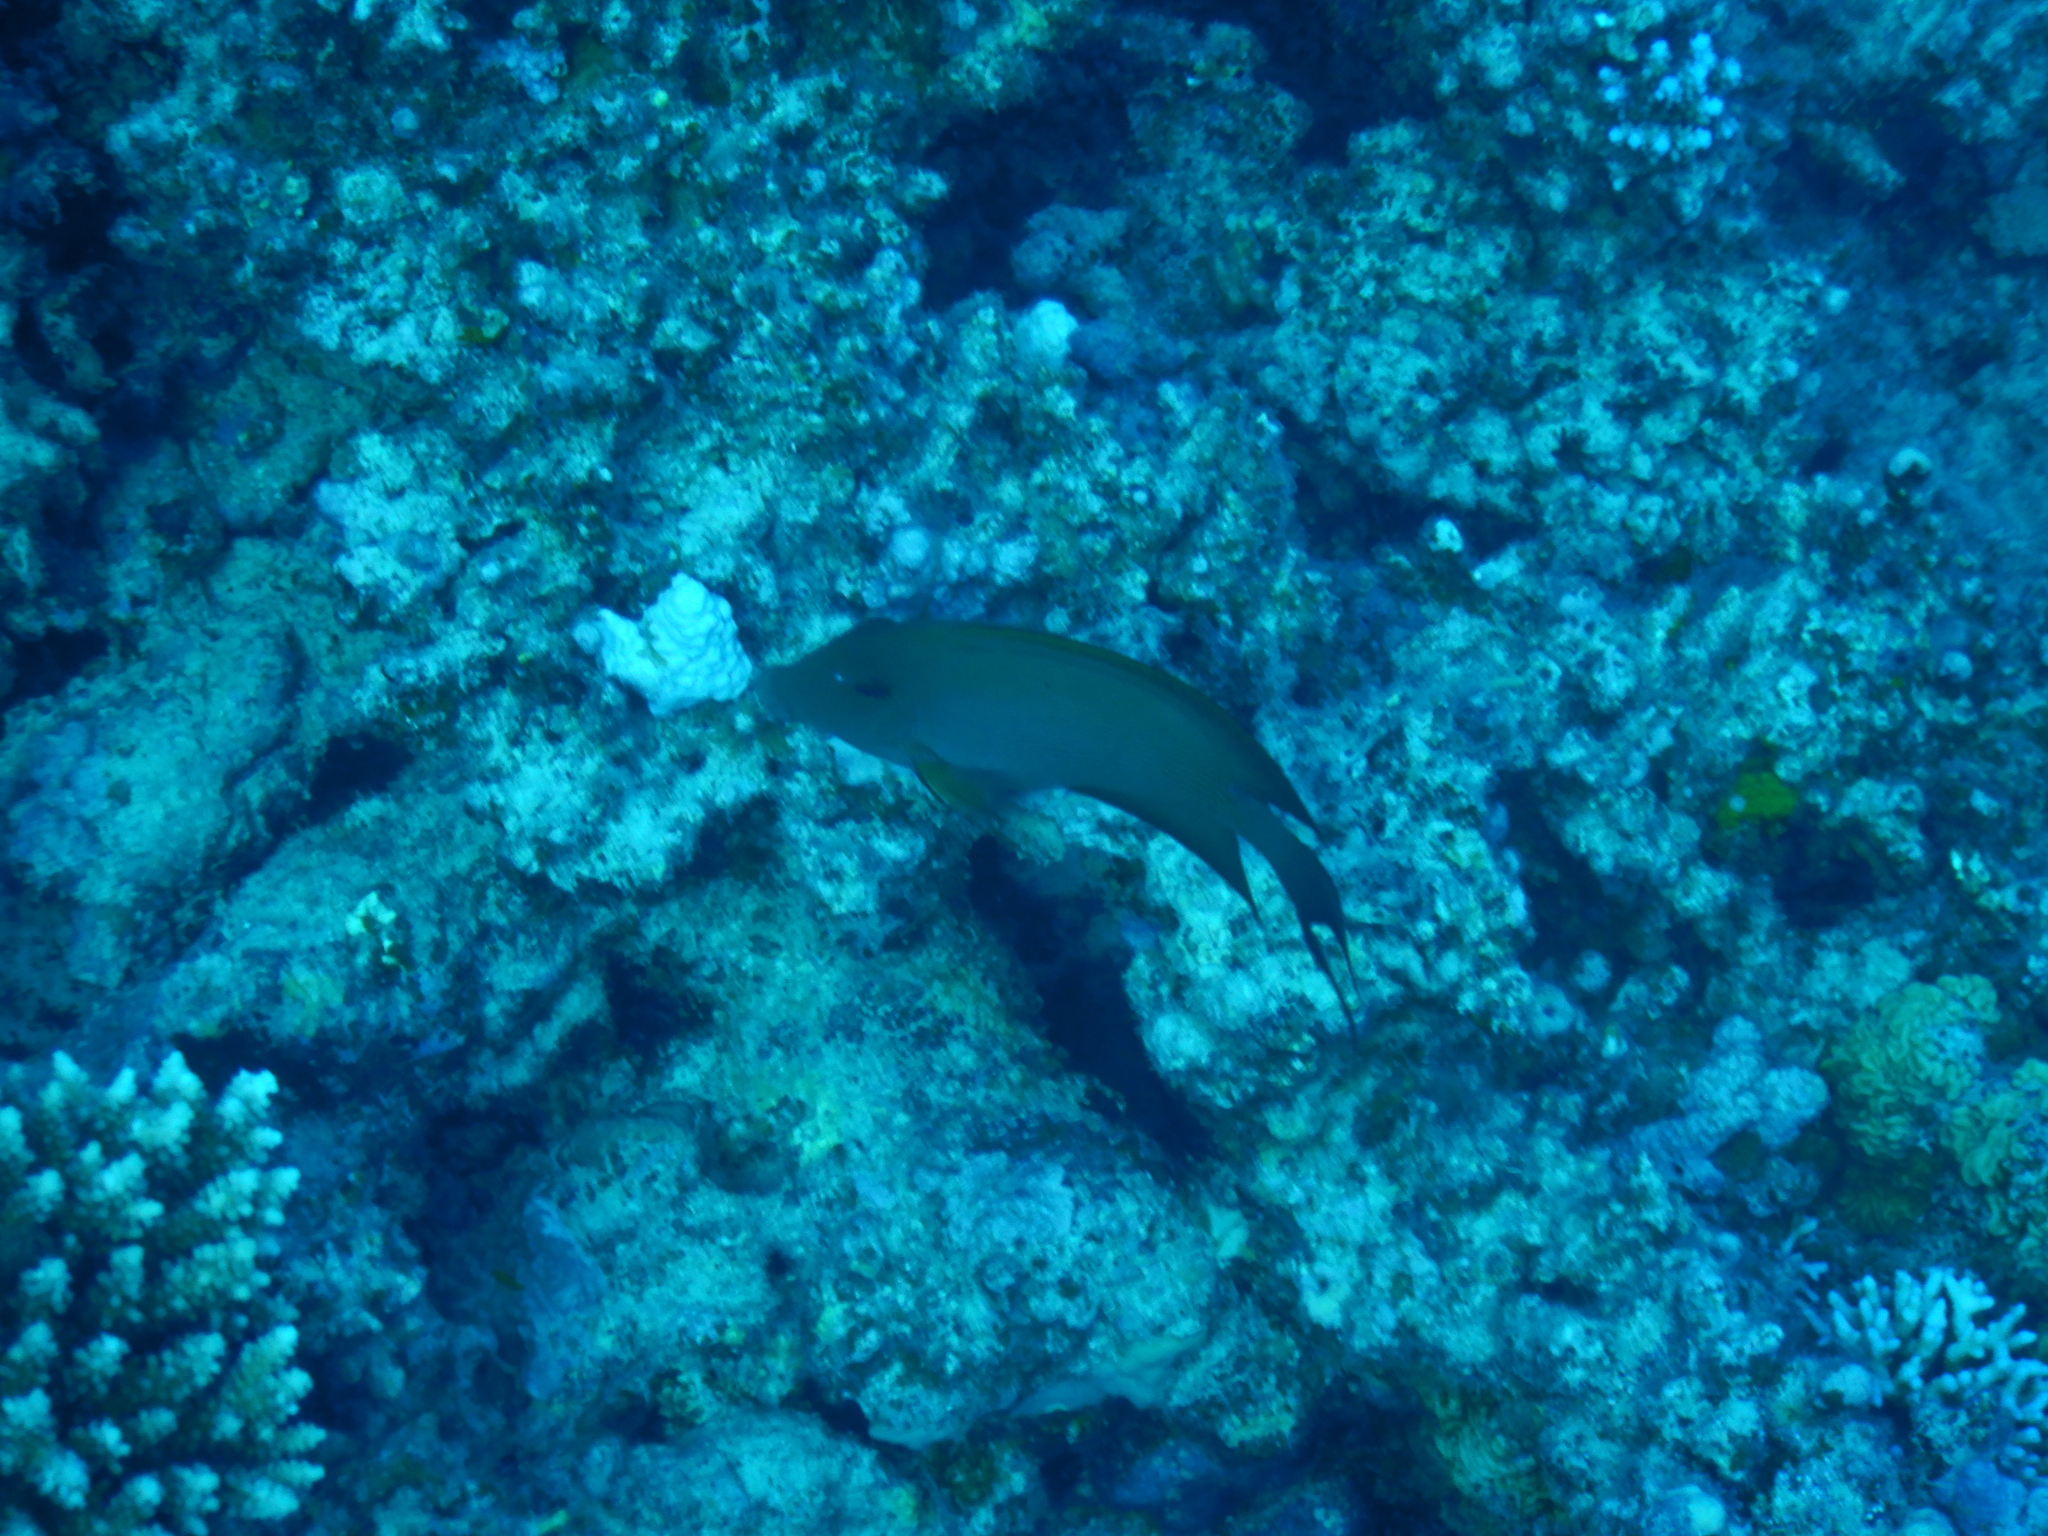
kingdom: Animalia
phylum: Chordata
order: Perciformes
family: Acanthuridae
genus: Ctenochaetus
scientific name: Ctenochaetus striatus
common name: Bristle-toothed surgeonfish
